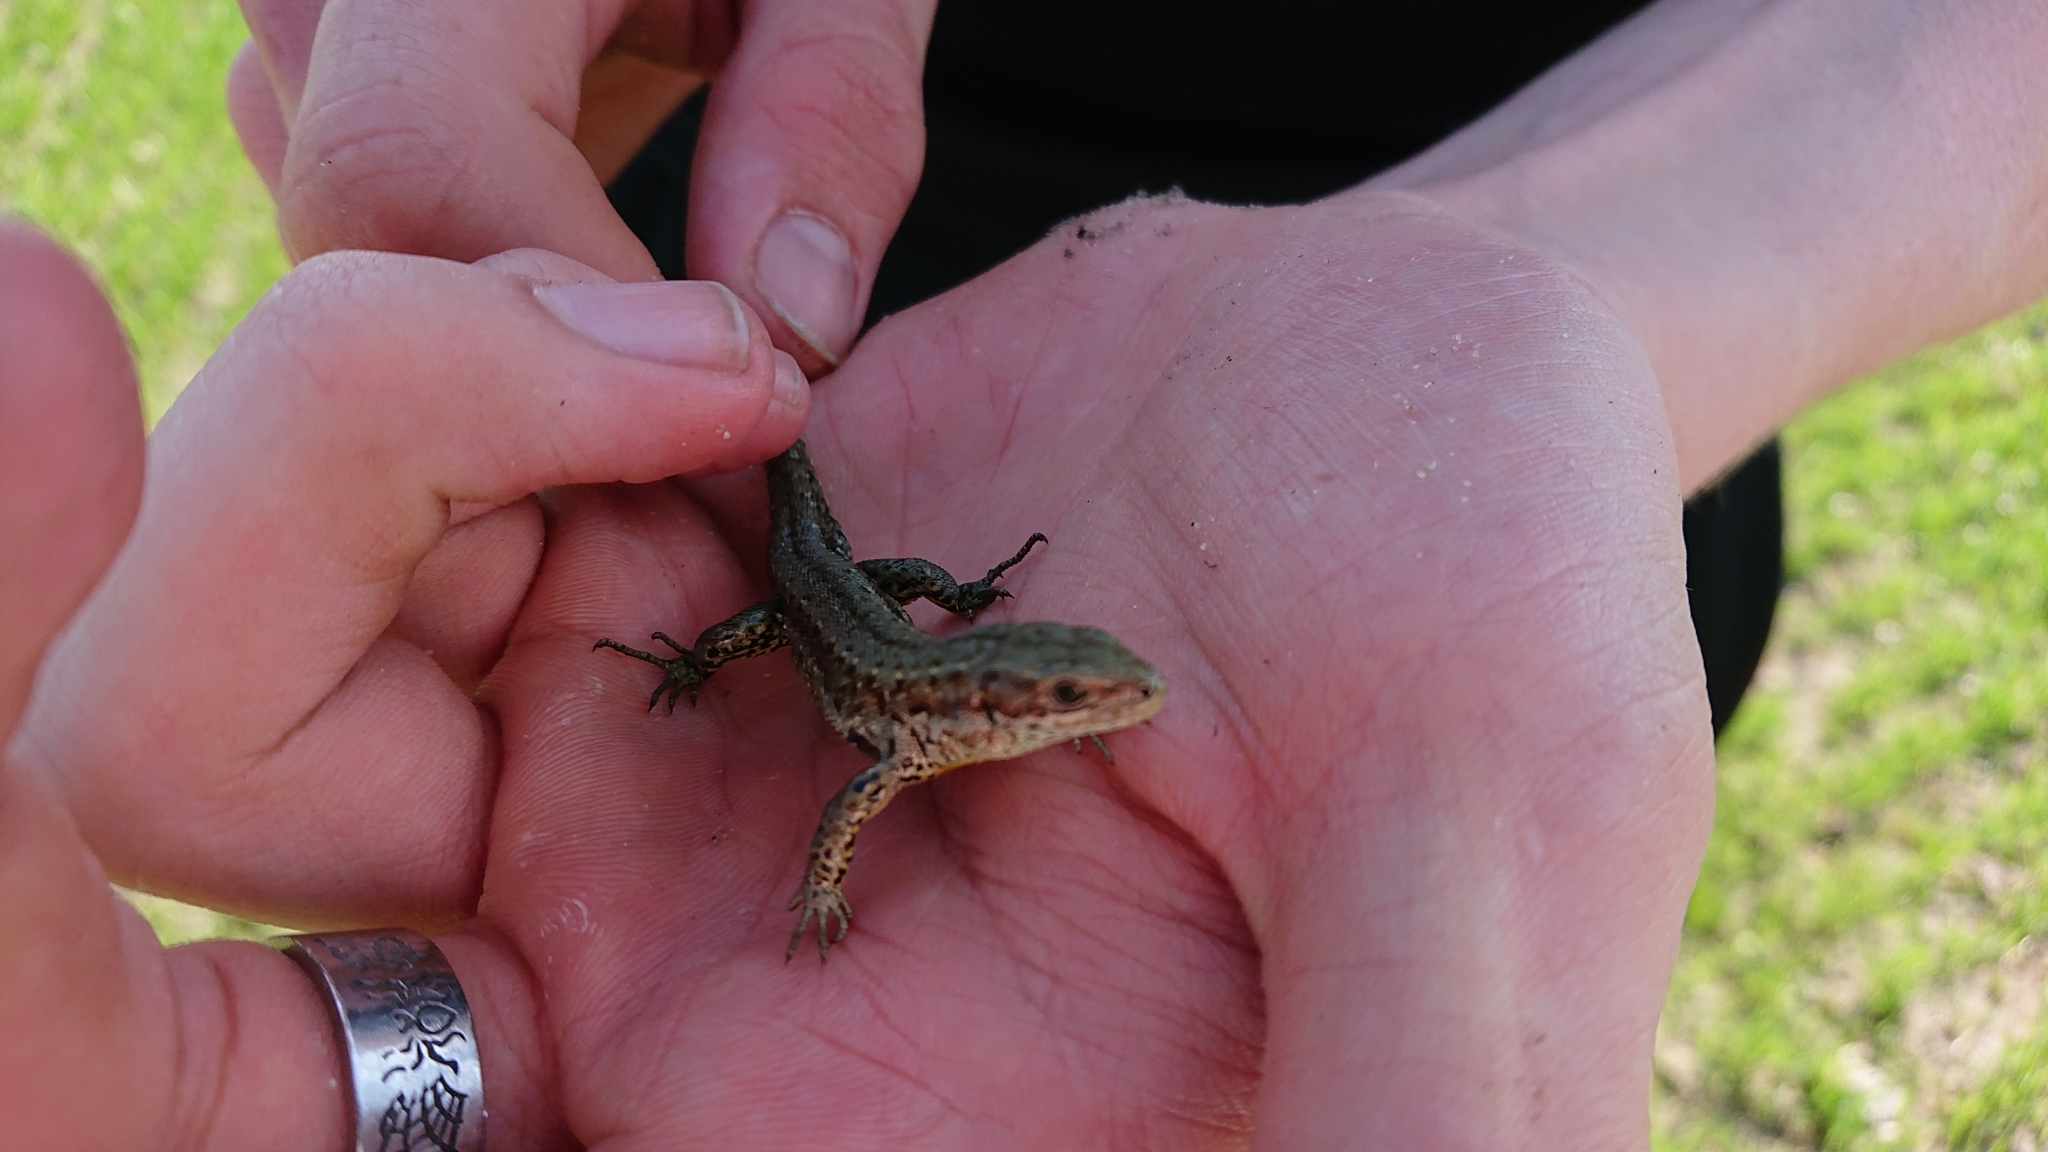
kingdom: Animalia
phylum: Chordata
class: Squamata
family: Lacertidae
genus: Zootoca
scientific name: Zootoca vivipara
